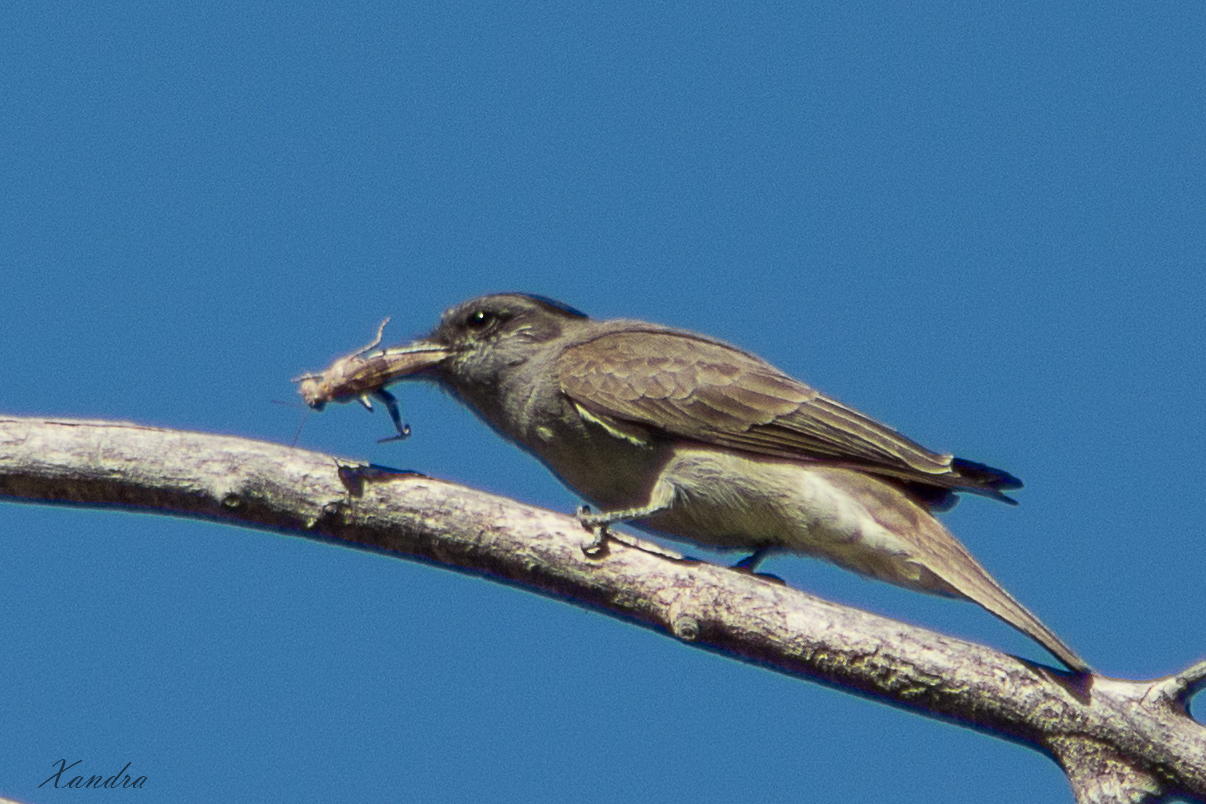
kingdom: Animalia
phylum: Chordata
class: Aves
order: Passeriformes
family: Tyrannidae
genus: Empidonomus
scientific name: Empidonomus aurantioatrocristatus
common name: Crowned slaty flycatcher
